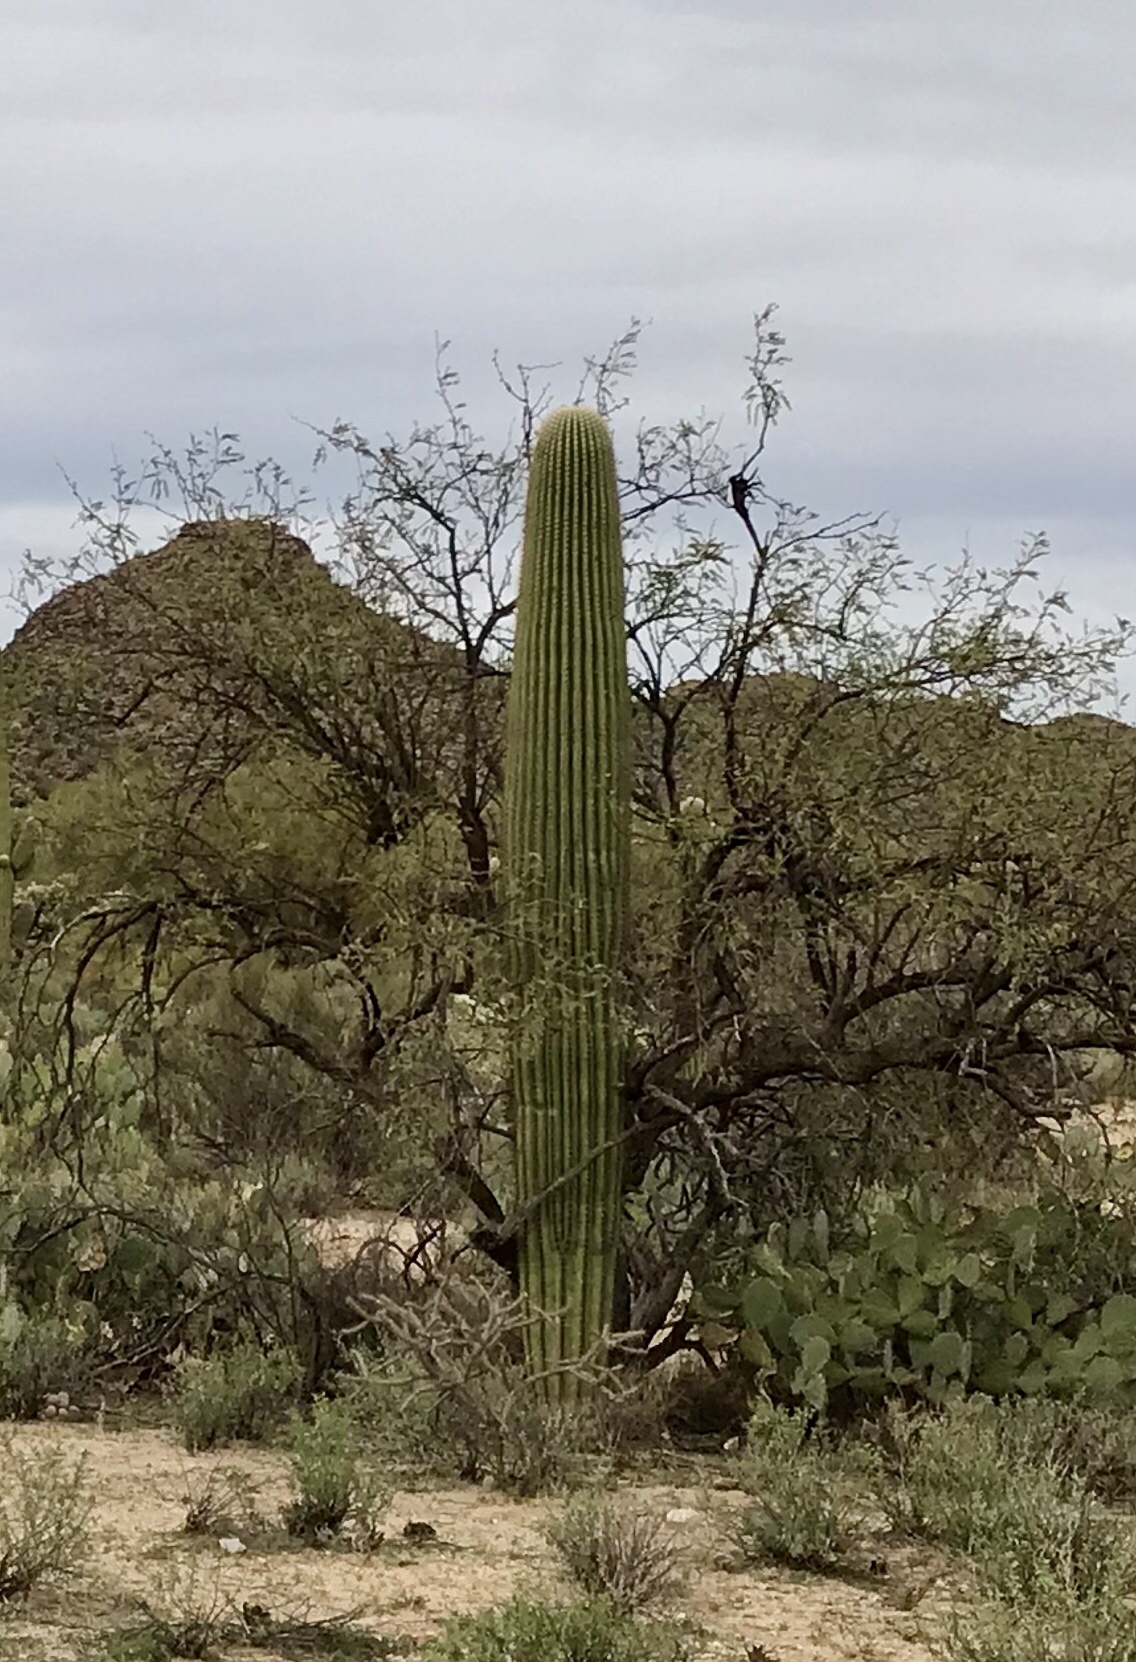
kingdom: Plantae
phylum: Tracheophyta
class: Magnoliopsida
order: Caryophyllales
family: Cactaceae
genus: Carnegiea
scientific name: Carnegiea gigantea
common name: Saguaro
